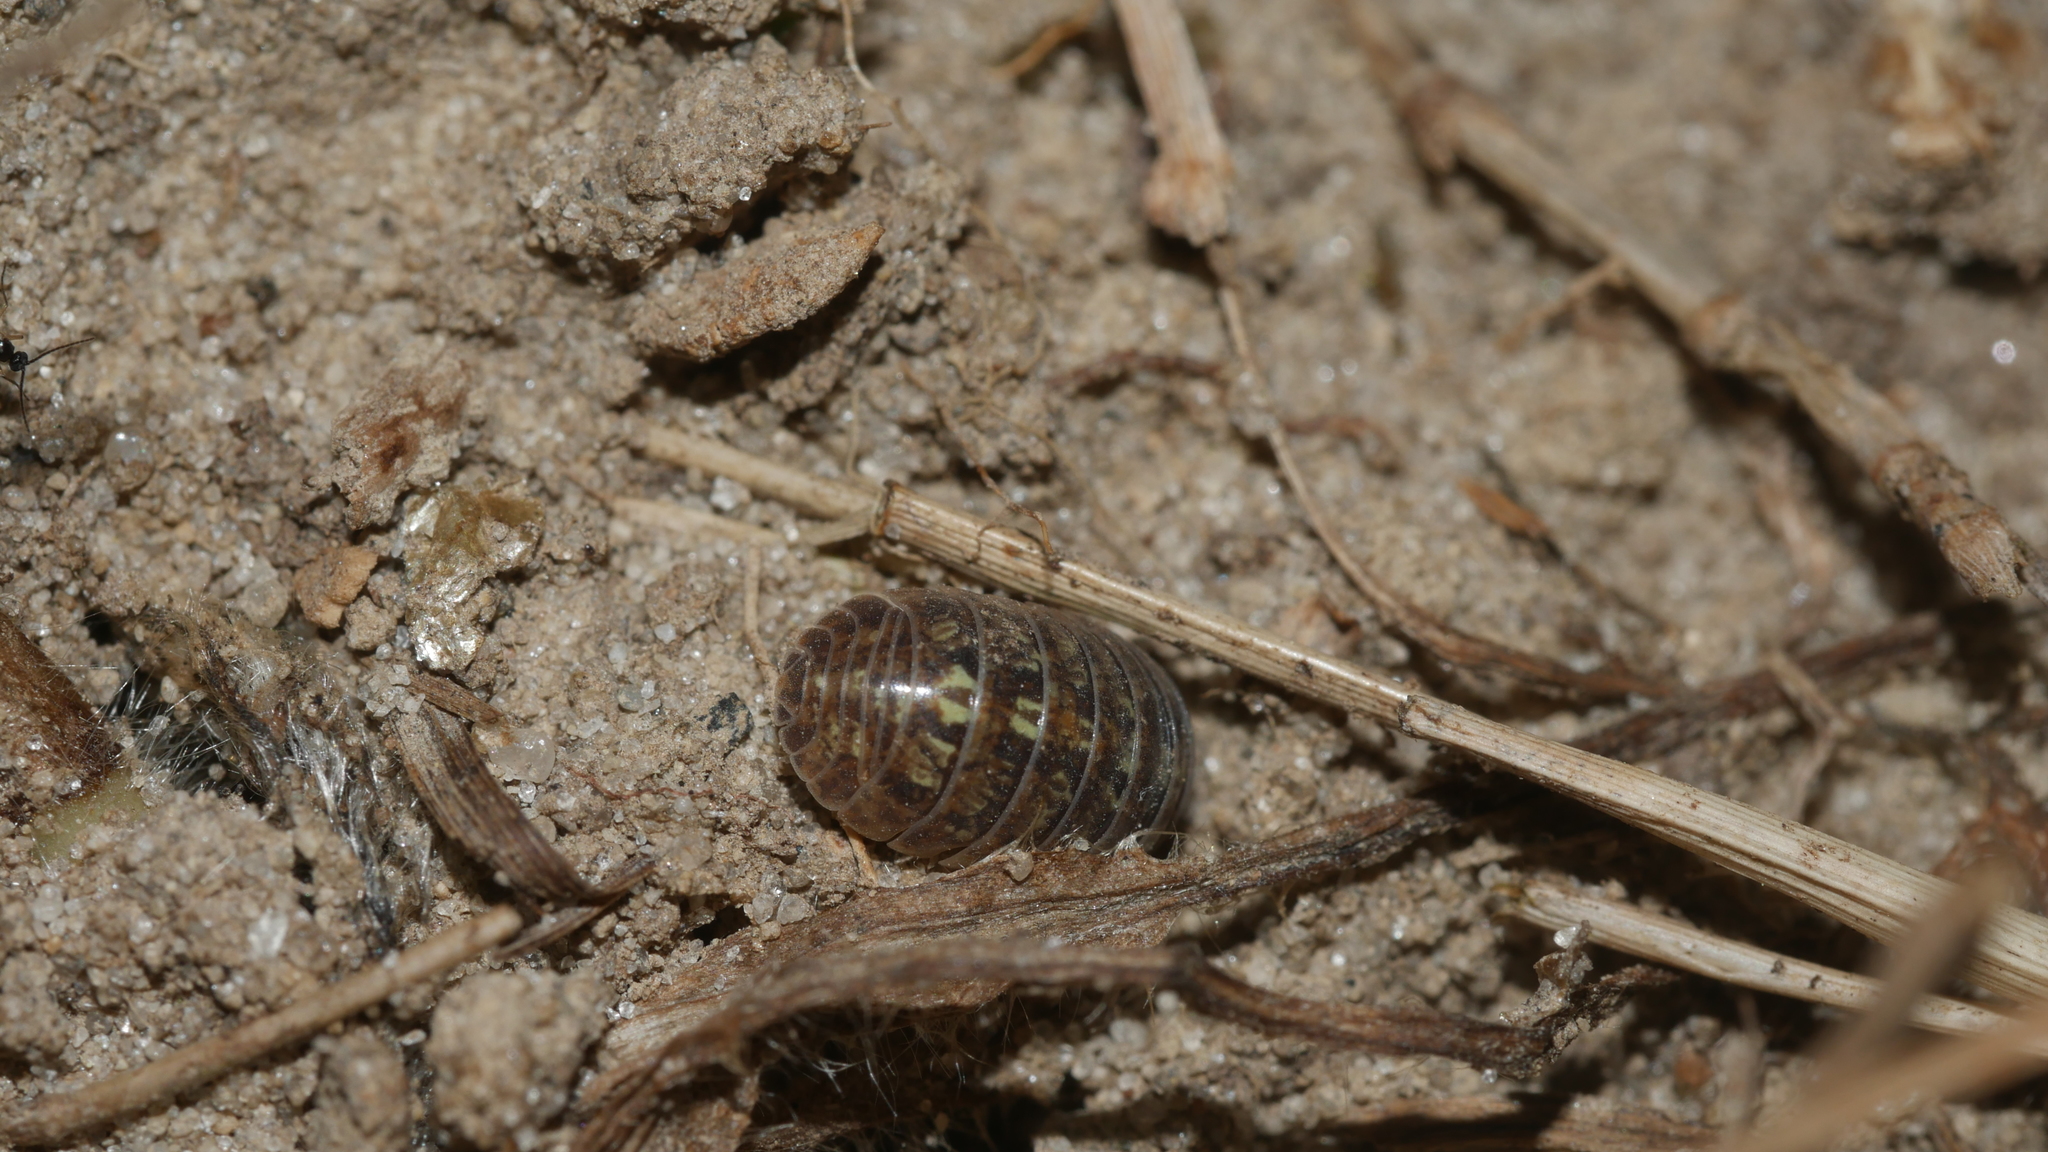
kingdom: Animalia
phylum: Arthropoda
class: Malacostraca
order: Isopoda
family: Armadillidiidae
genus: Armadillidium
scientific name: Armadillidium vulgare
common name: Common pill woodlouse
